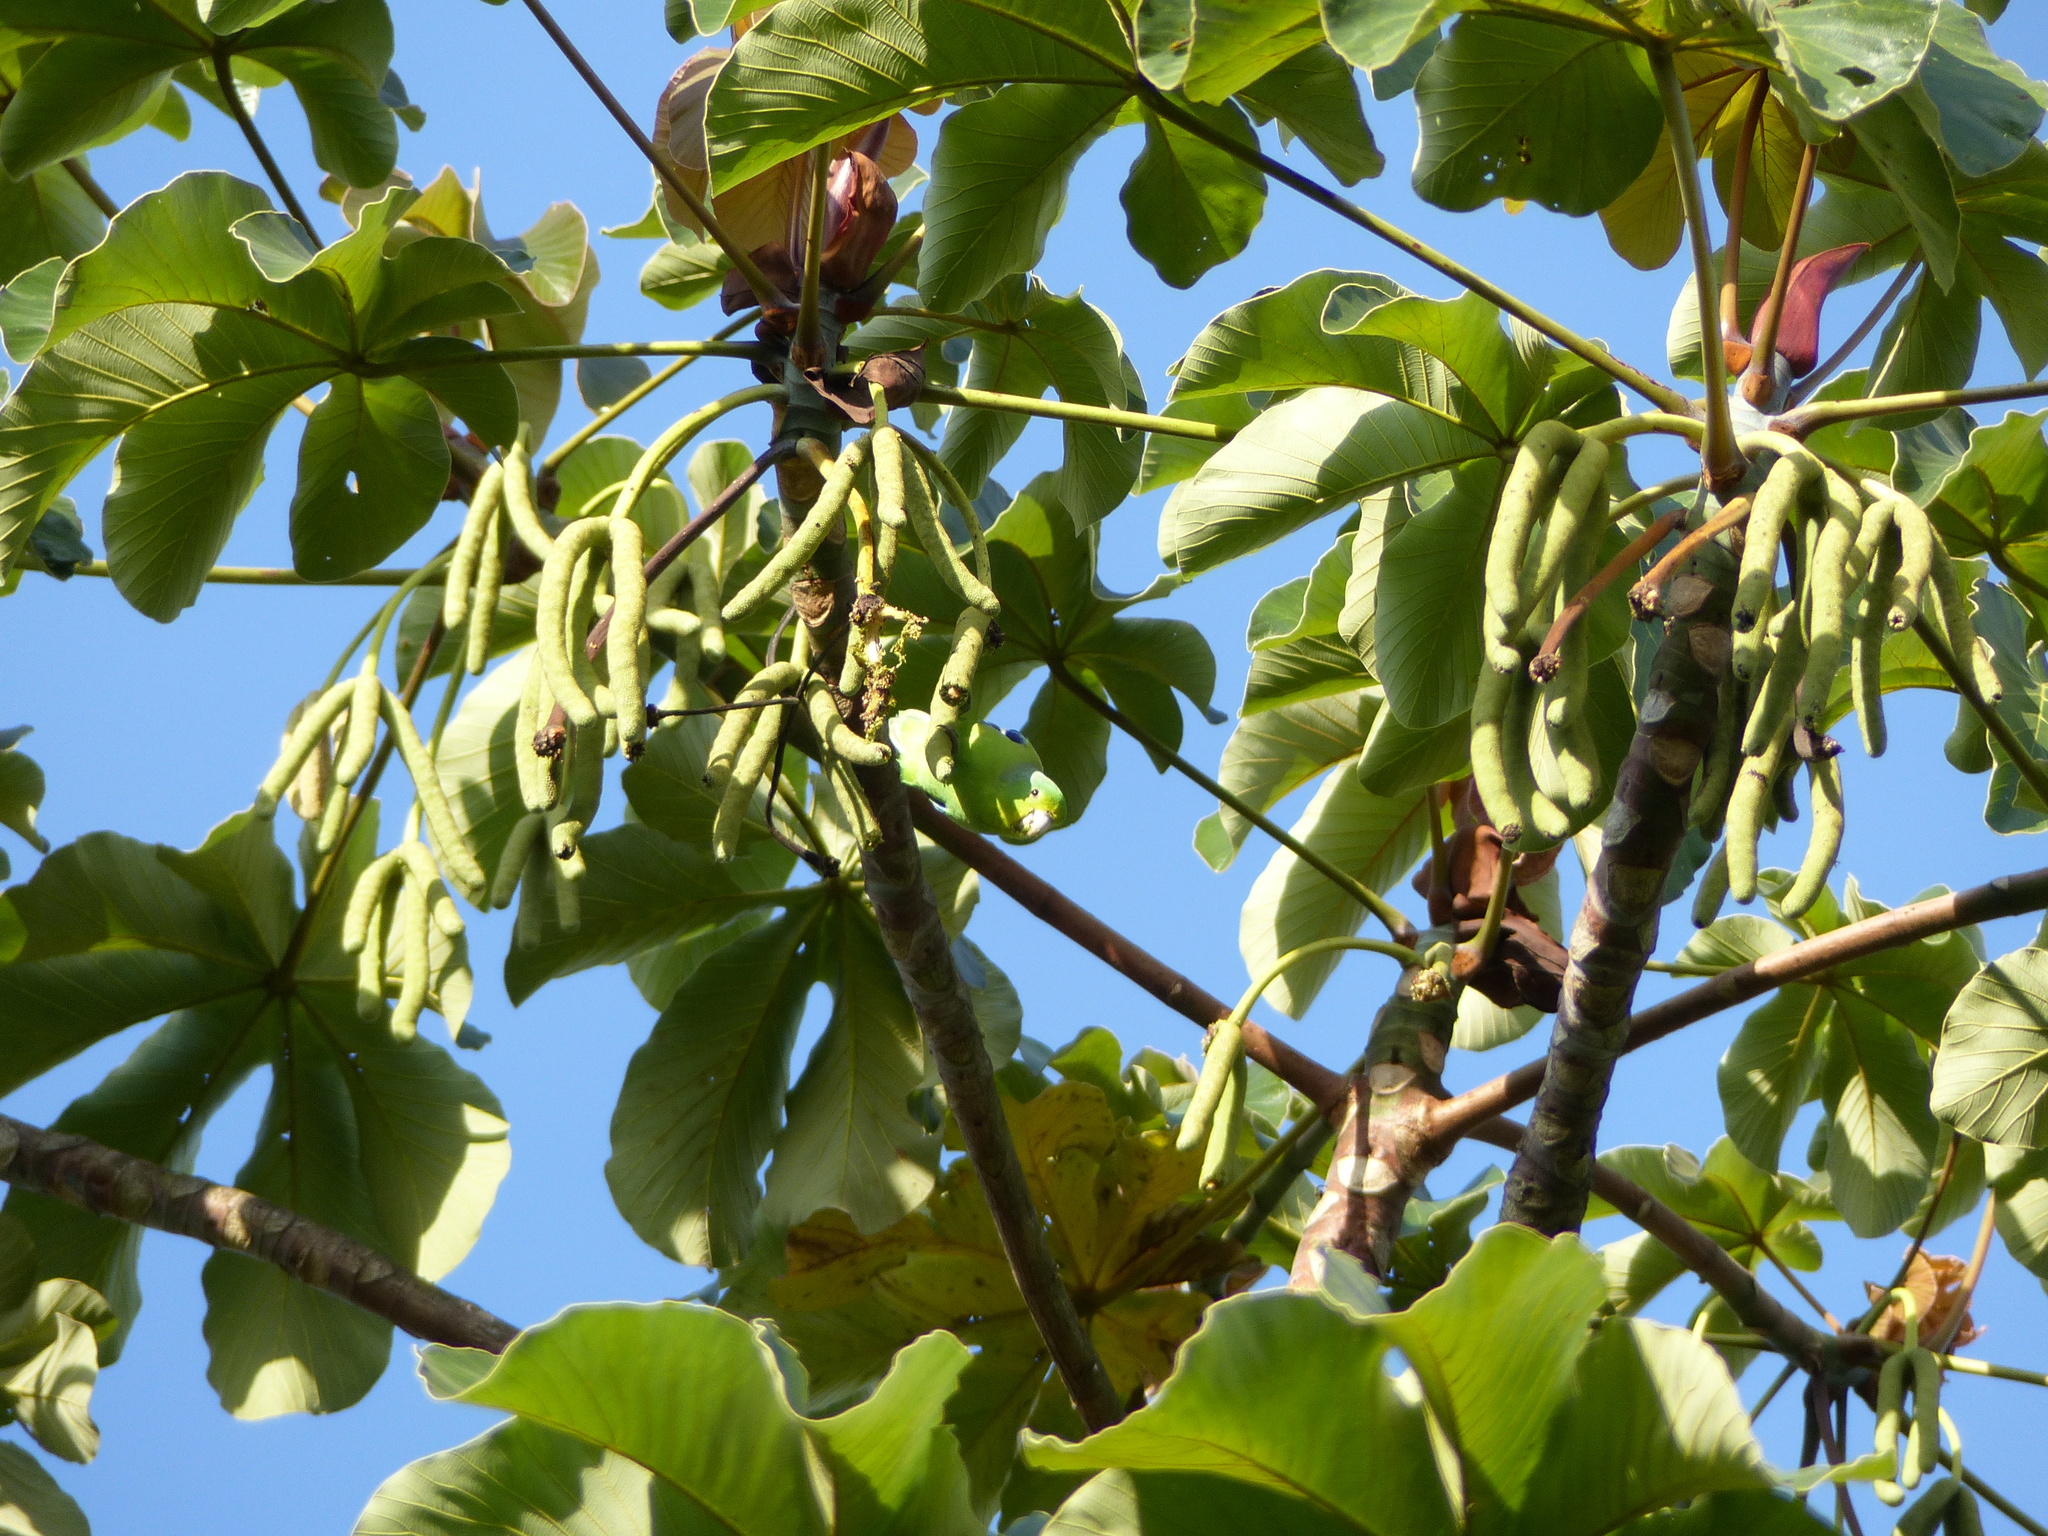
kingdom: Plantae
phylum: Tracheophyta
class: Magnoliopsida
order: Rosales
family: Urticaceae
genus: Cecropia
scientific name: Cecropia palmata
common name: Trumpet tree
